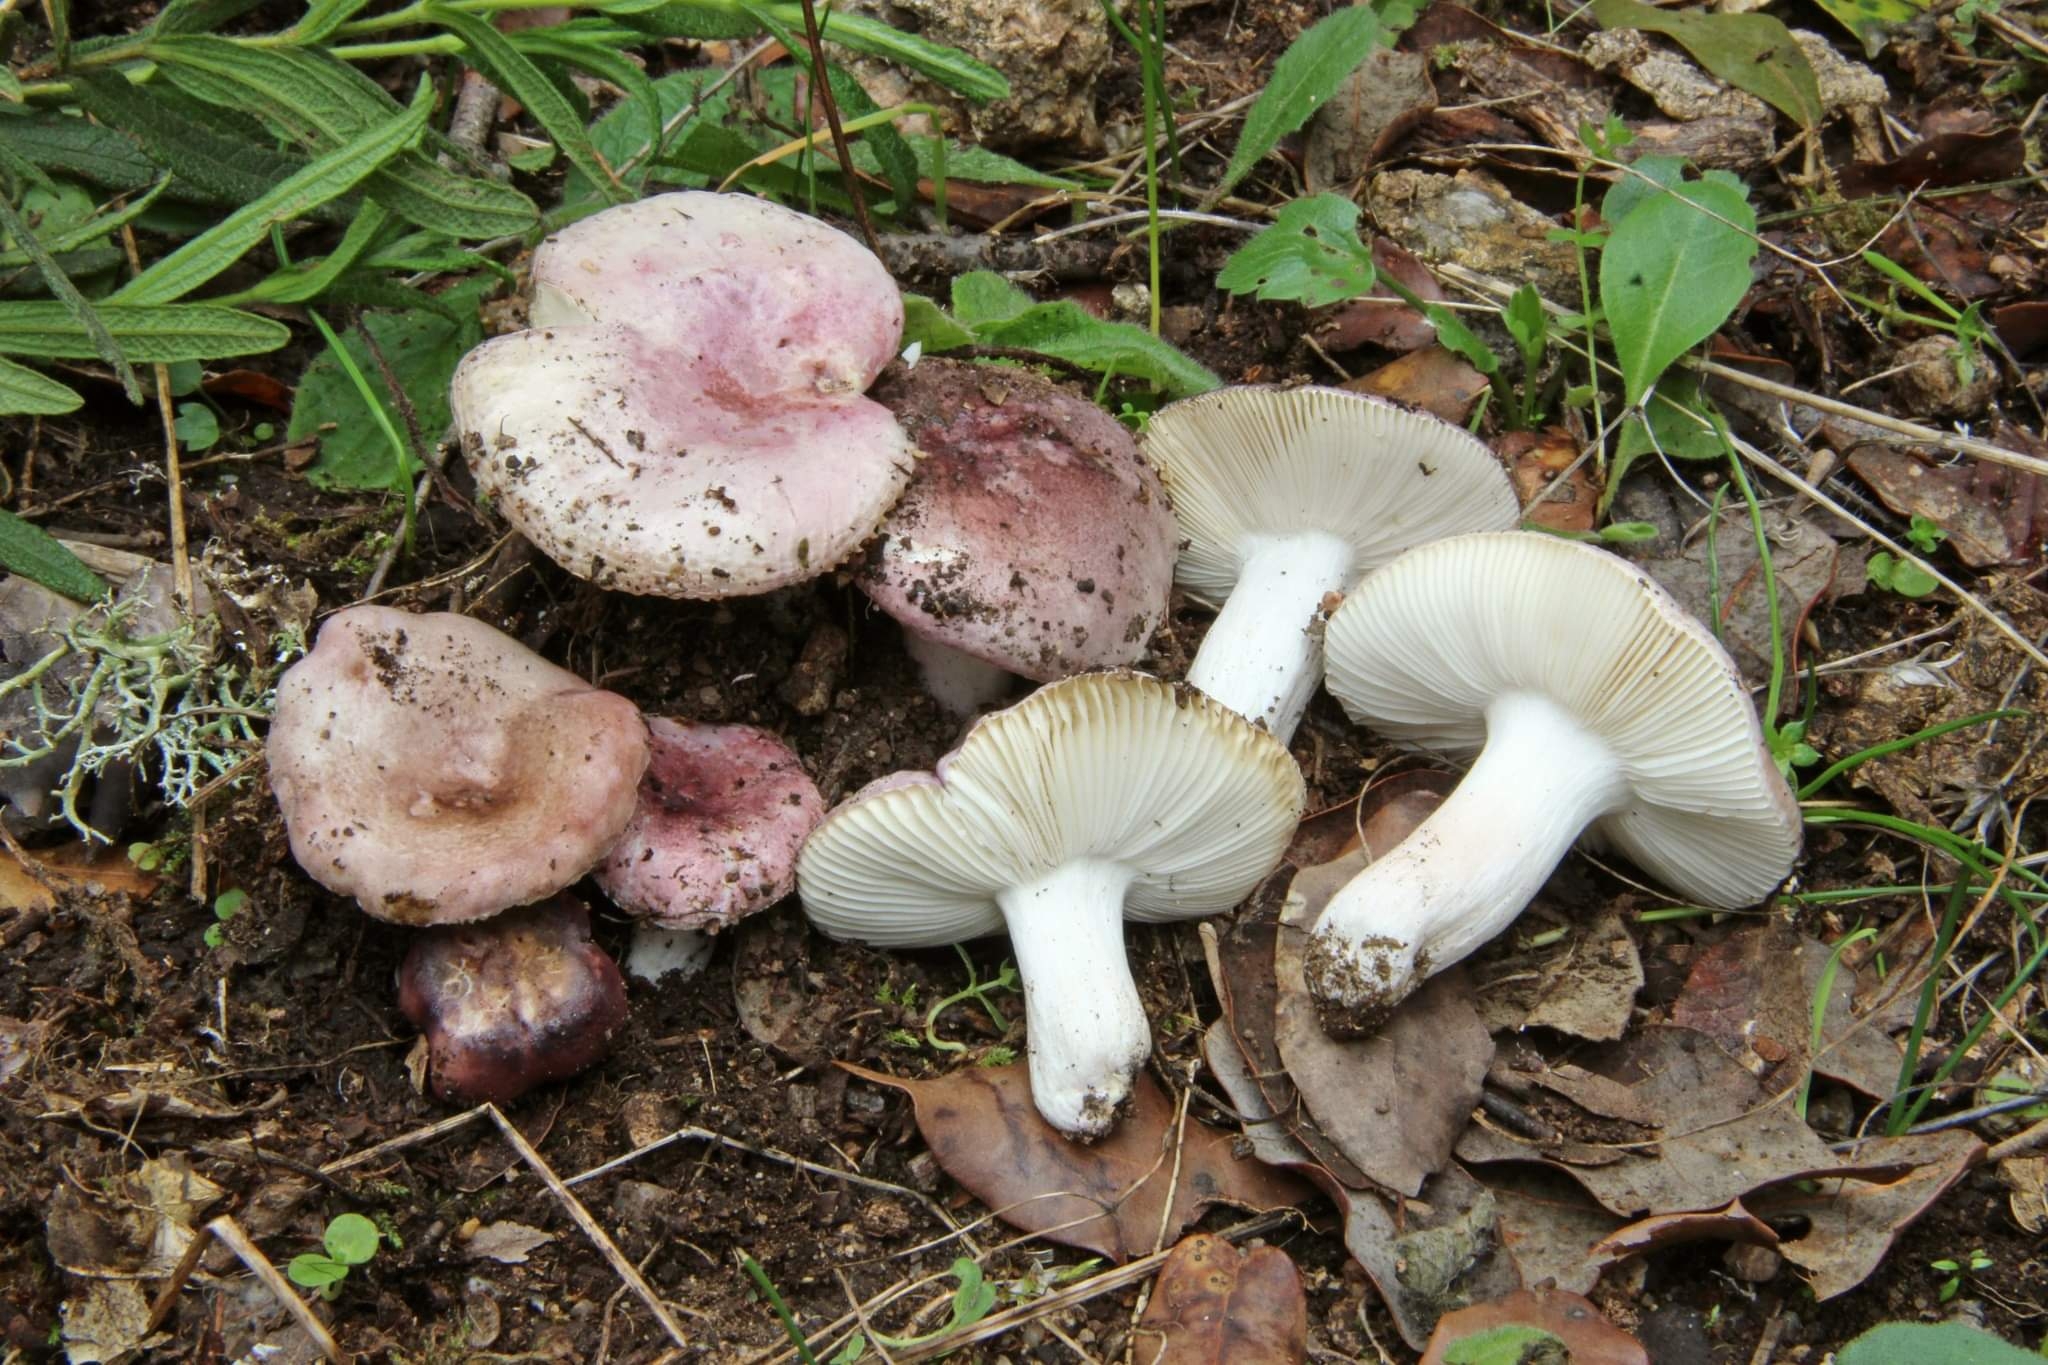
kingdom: Fungi
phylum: Basidiomycota
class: Agaricomycetes
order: Russulales
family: Russulaceae
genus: Russula
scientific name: Russula subazurea
